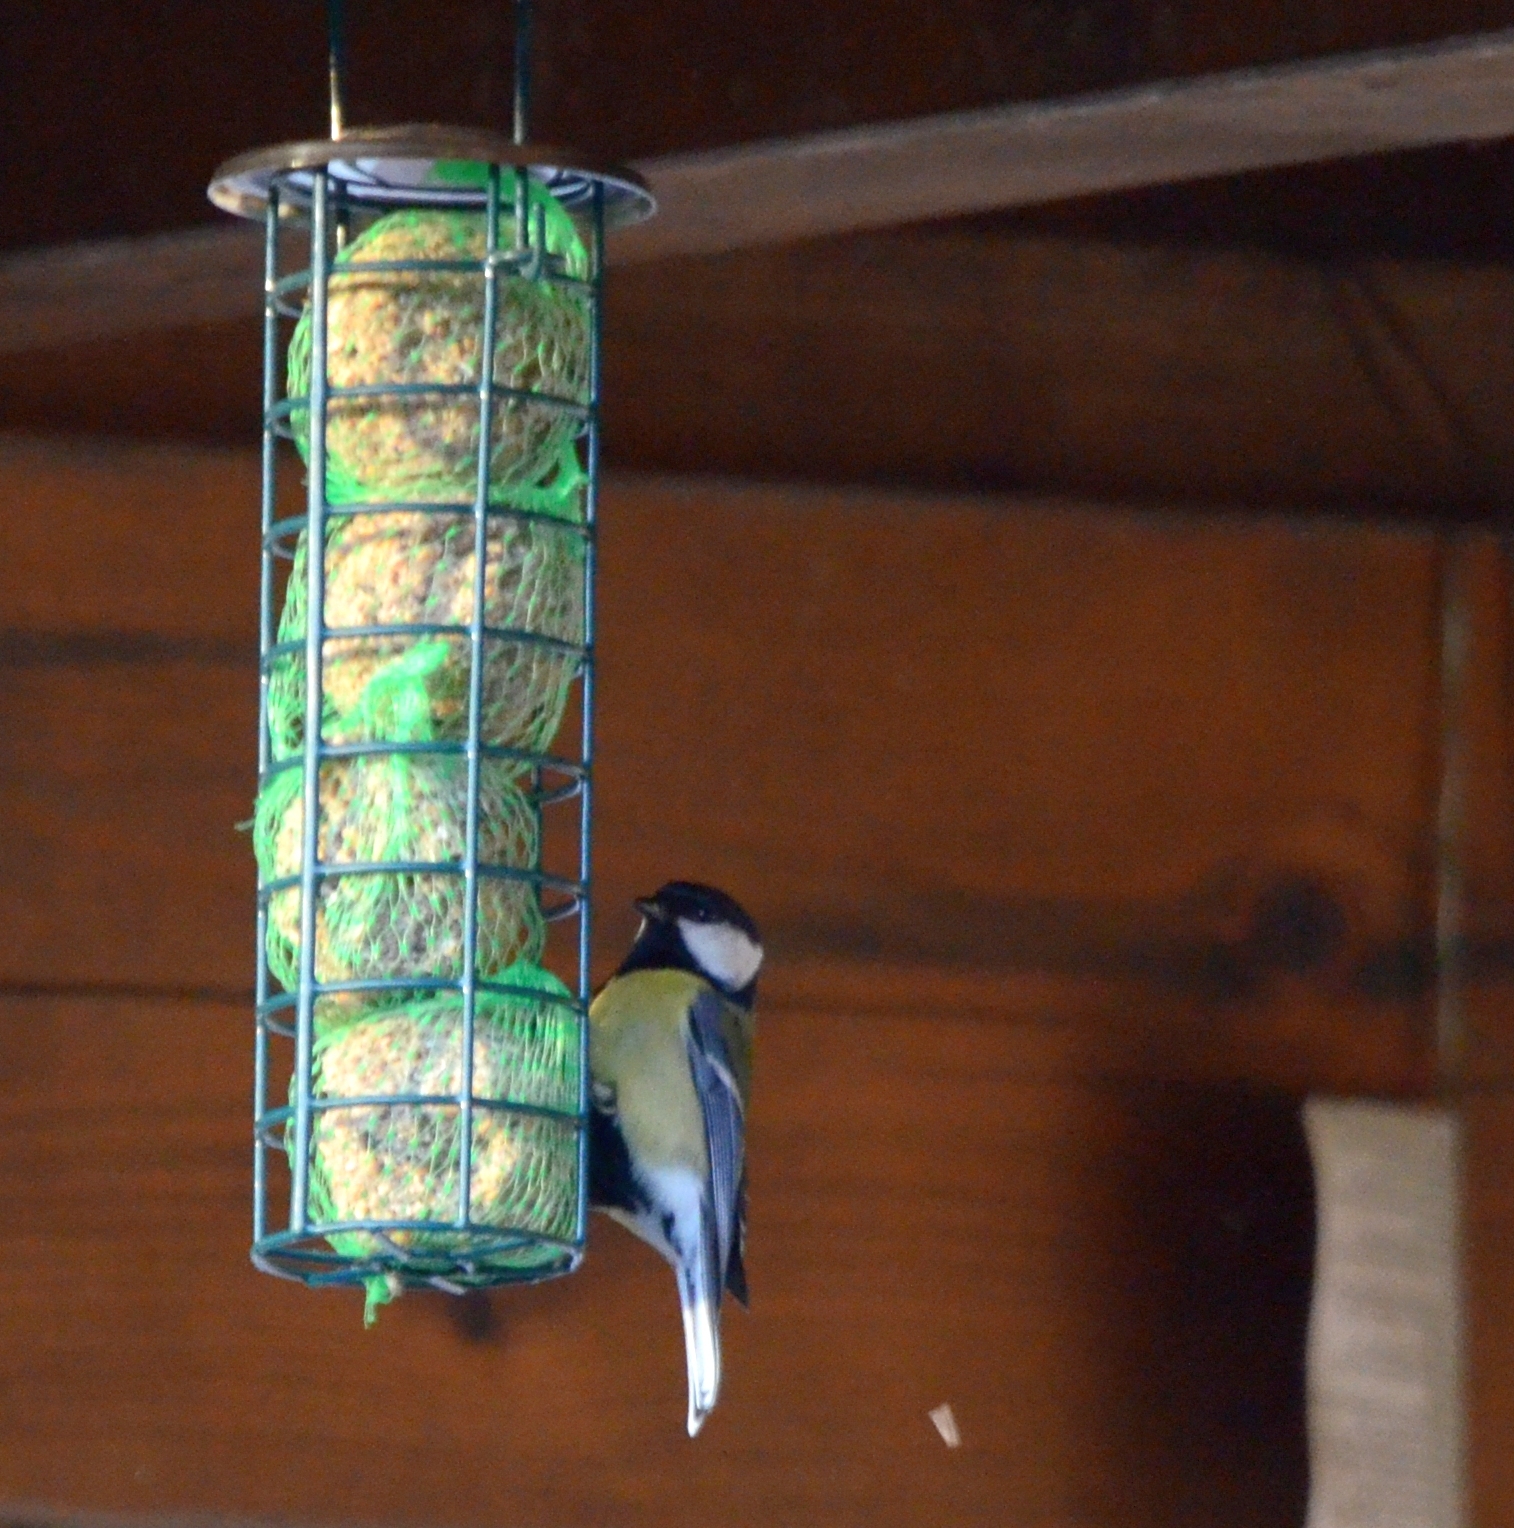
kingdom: Animalia
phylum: Chordata
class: Aves
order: Passeriformes
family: Paridae
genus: Parus
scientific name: Parus major
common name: Great tit
